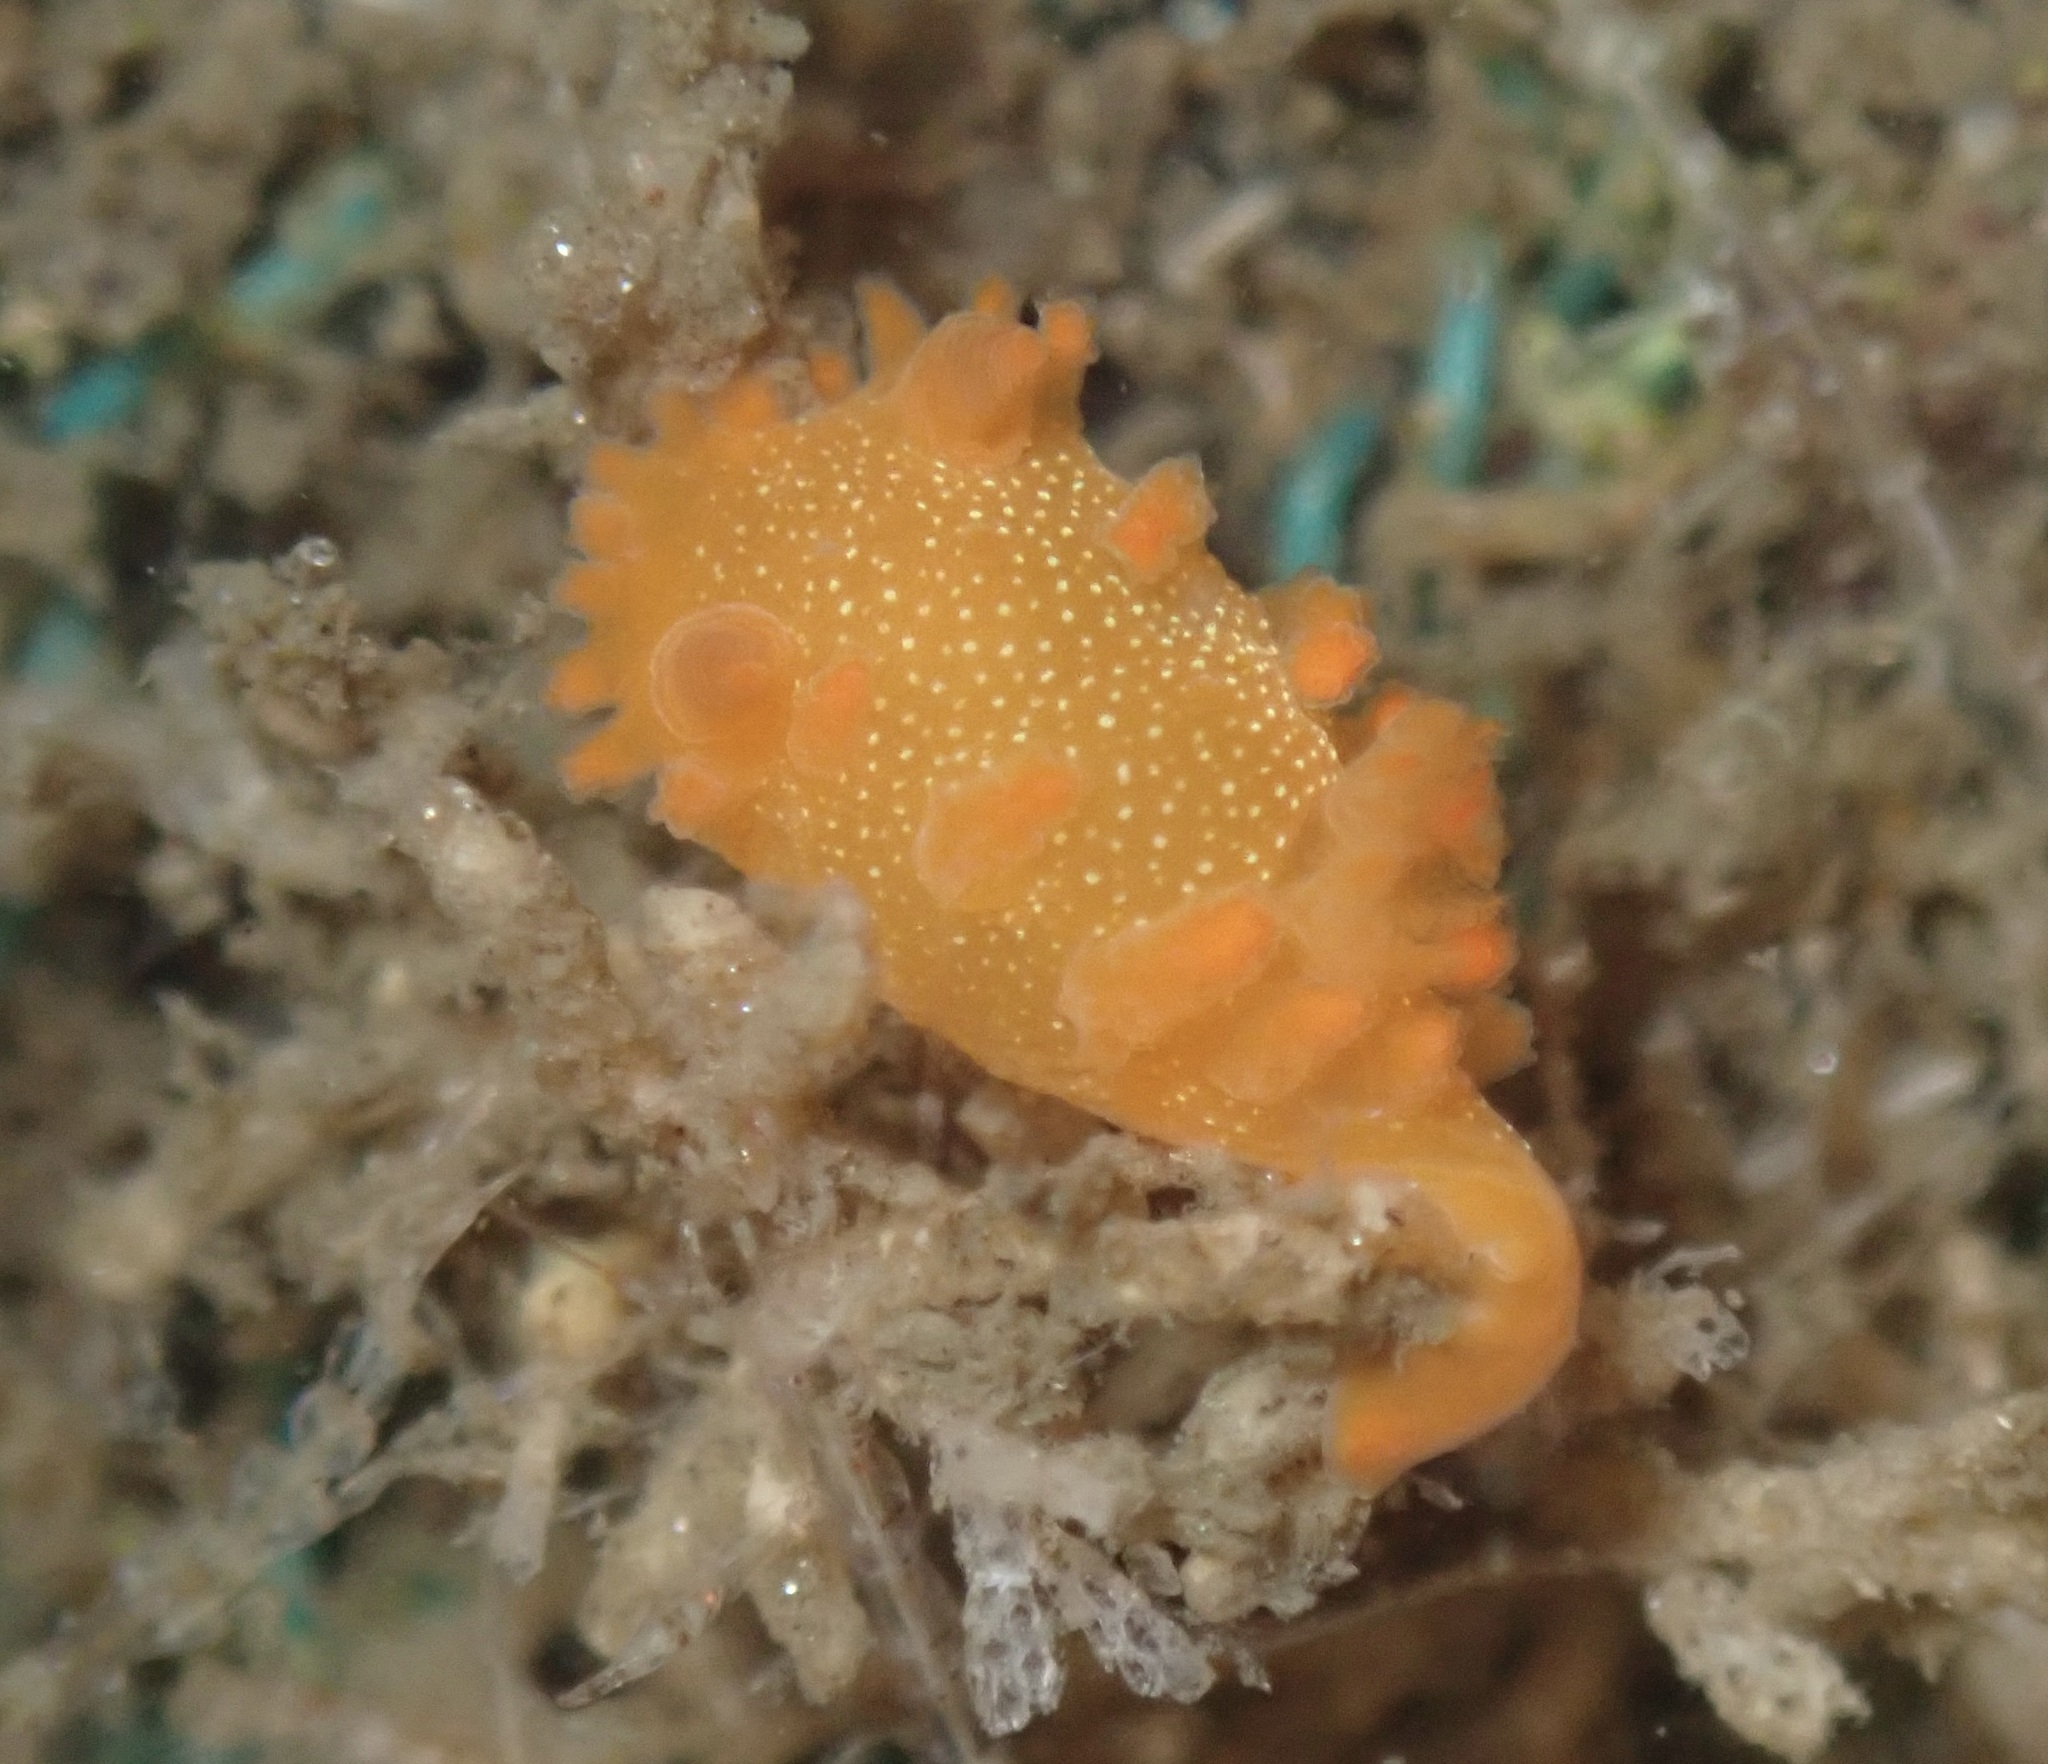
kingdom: Animalia
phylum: Mollusca
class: Gastropoda
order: Nudibranchia
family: Polyceridae
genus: Triopha
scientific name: Triopha maculata
